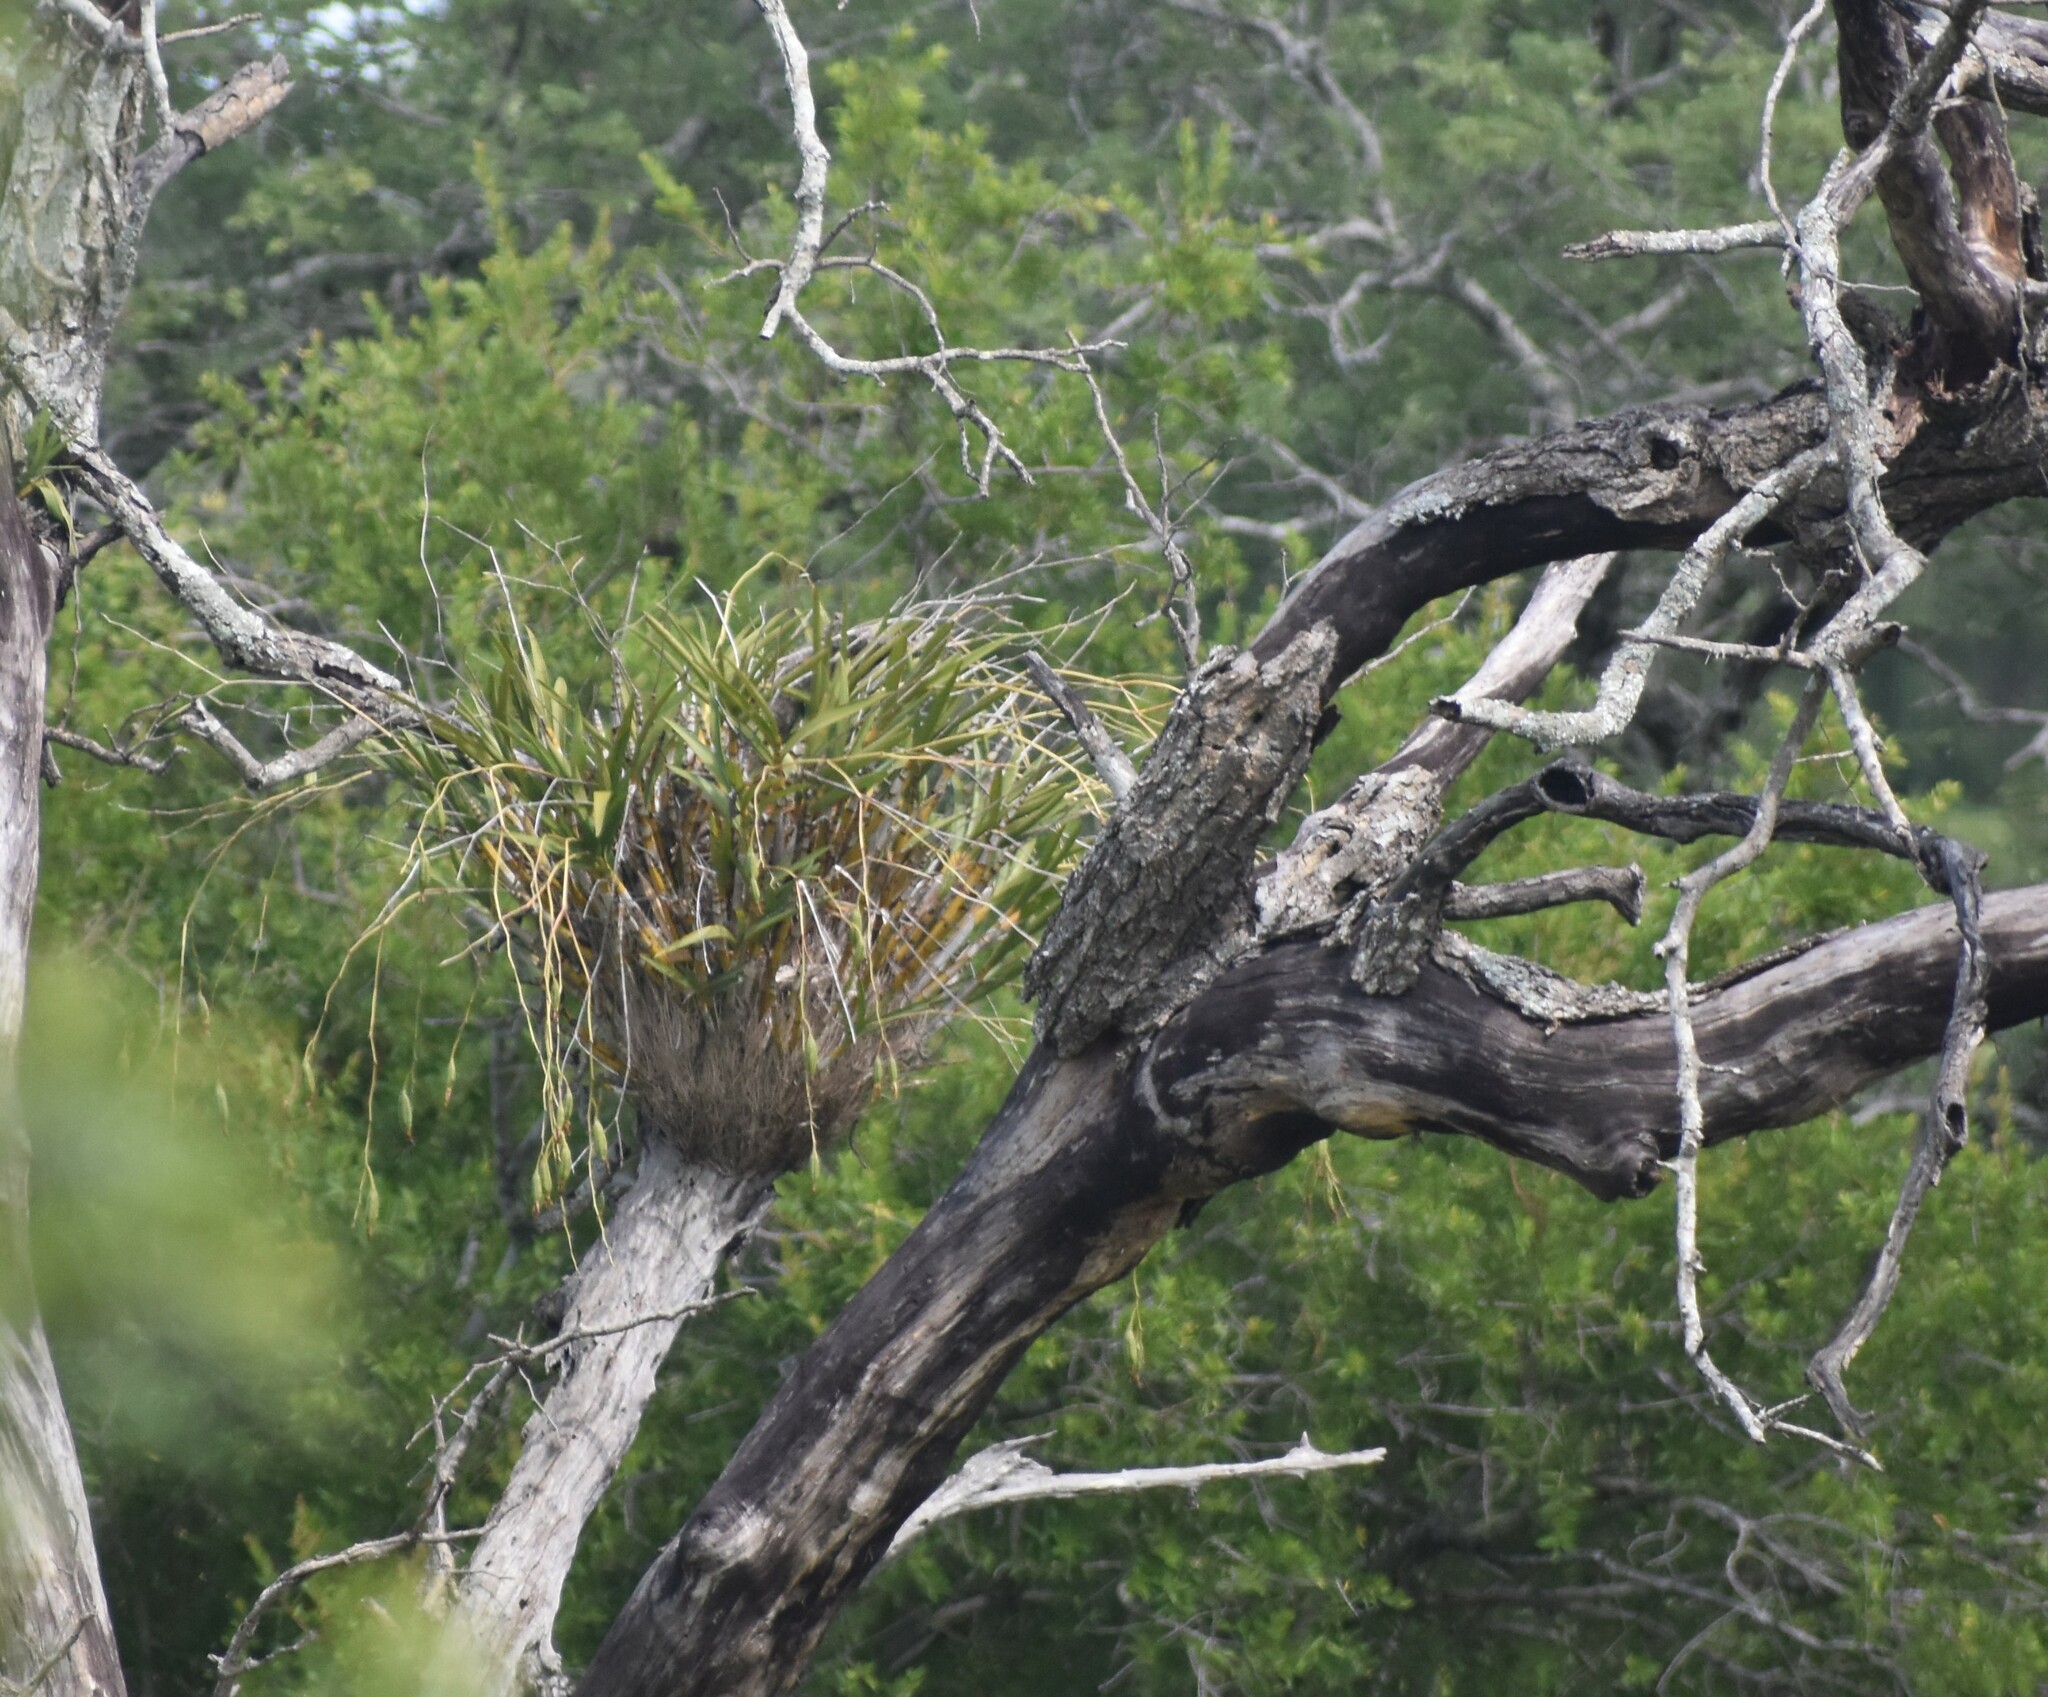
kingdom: Plantae
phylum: Tracheophyta
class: Liliopsida
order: Asparagales
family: Orchidaceae
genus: Ansellia
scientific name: Ansellia africana
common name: African ansellia
